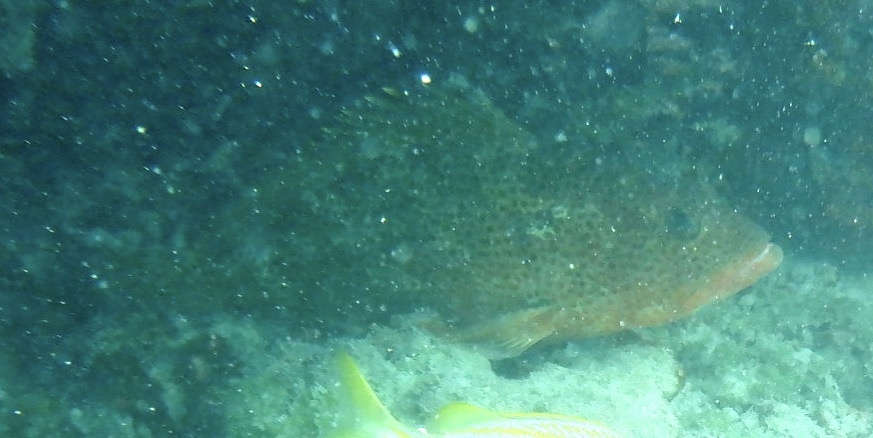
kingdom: Animalia
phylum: Chordata
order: Perciformes
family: Serranidae
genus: Epinephelus
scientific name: Epinephelus guttatus
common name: Red hind
